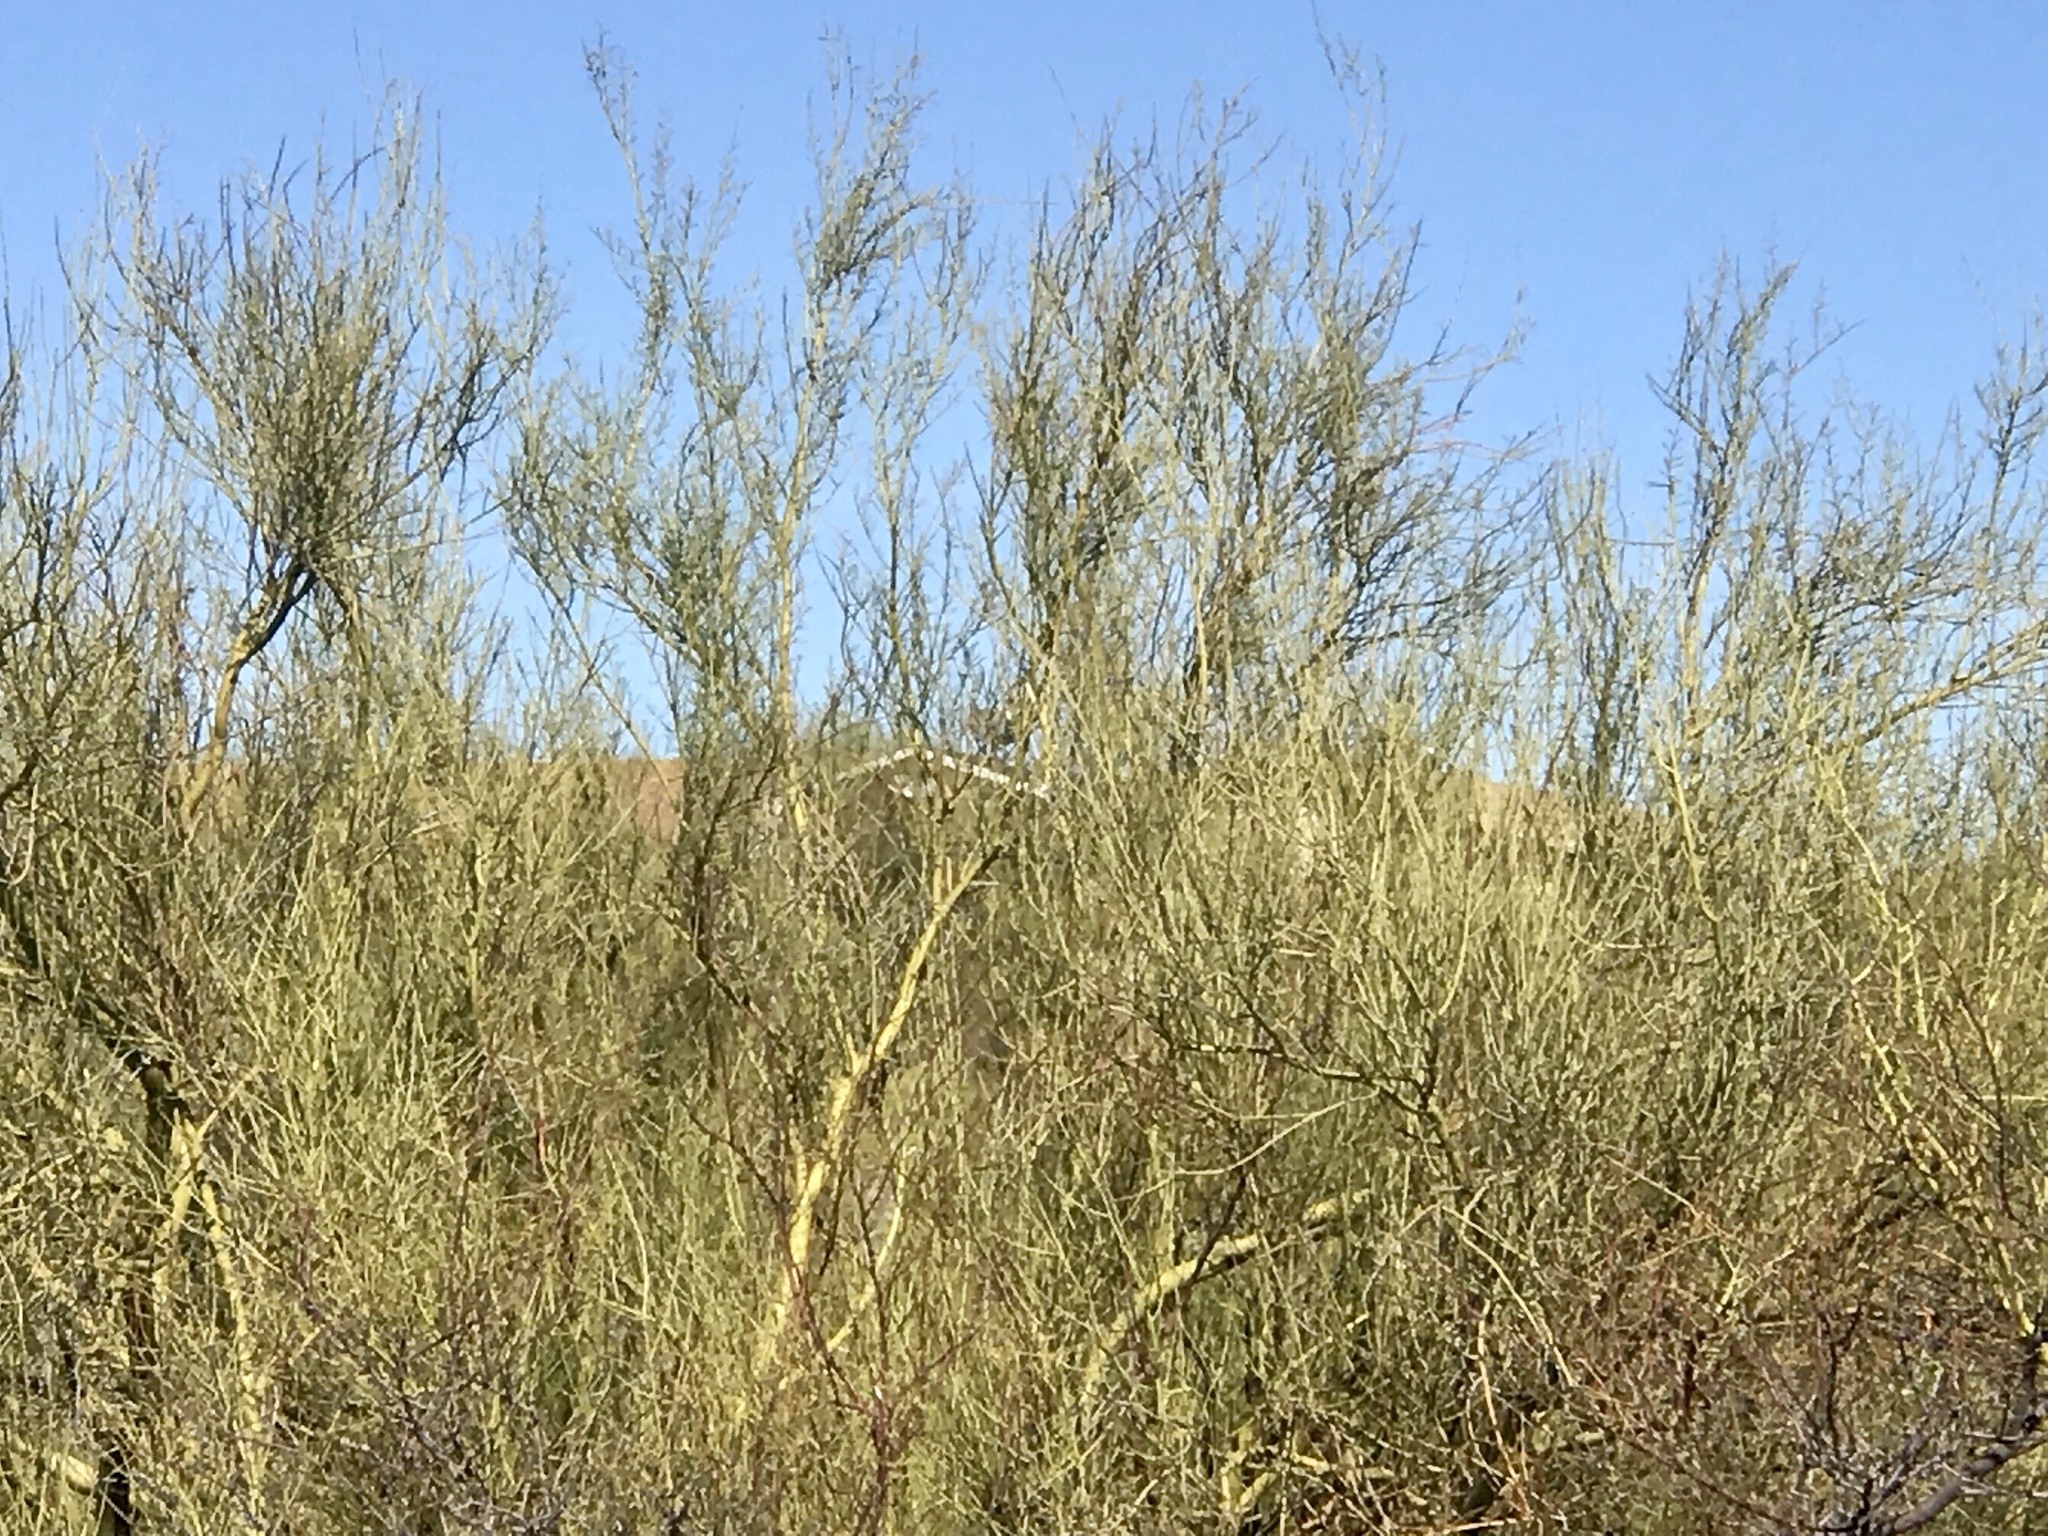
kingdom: Plantae
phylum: Tracheophyta
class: Magnoliopsida
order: Fabales
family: Fabaceae
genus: Parkinsonia
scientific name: Parkinsonia microphylla
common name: Yellow paloverde
